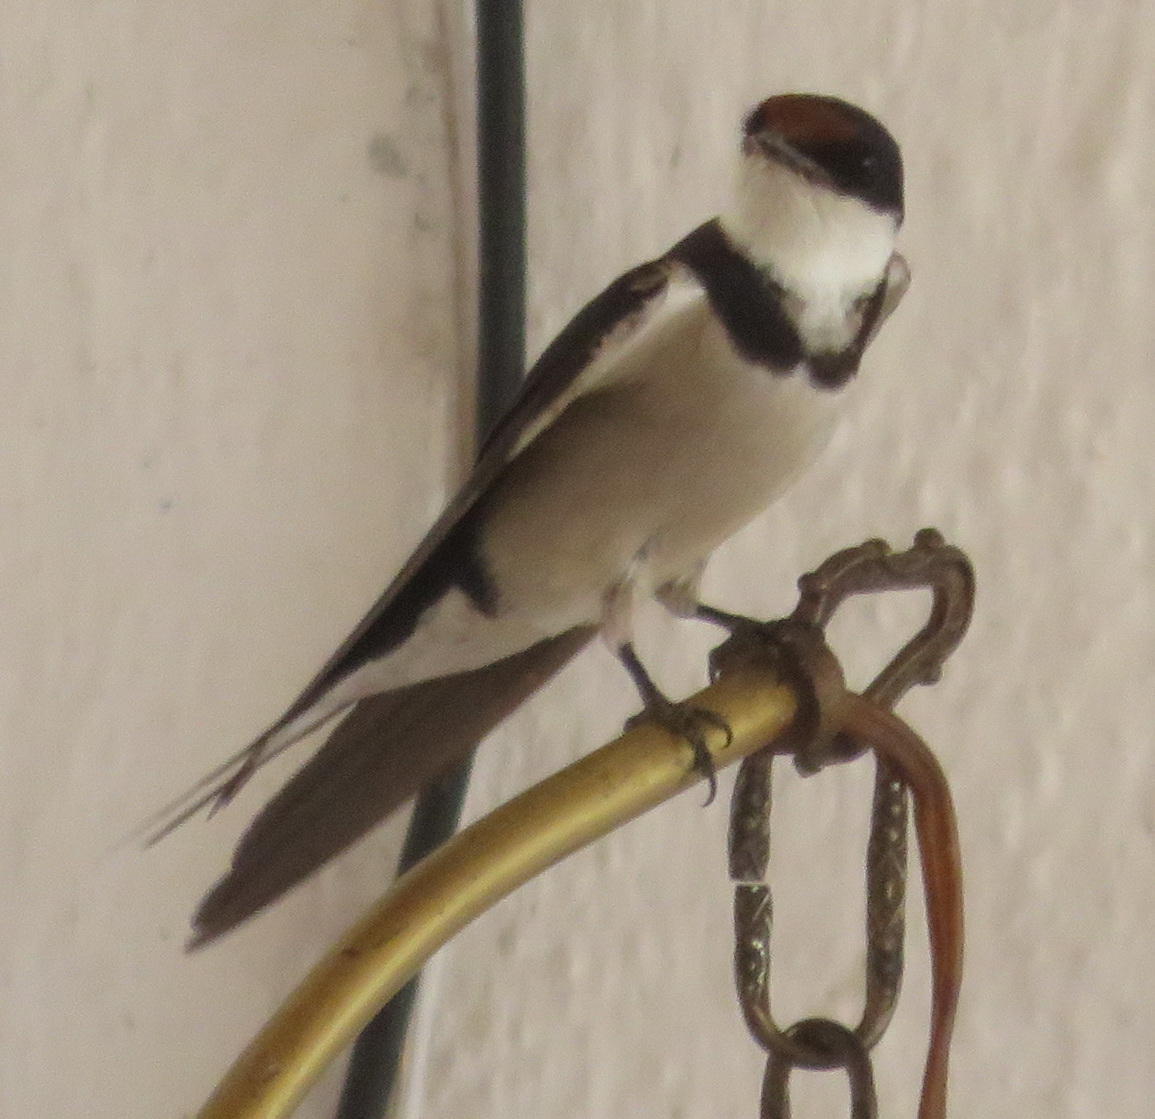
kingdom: Animalia
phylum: Chordata
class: Aves
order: Passeriformes
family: Hirundinidae
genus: Hirundo
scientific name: Hirundo albigularis
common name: White-throated swallow
